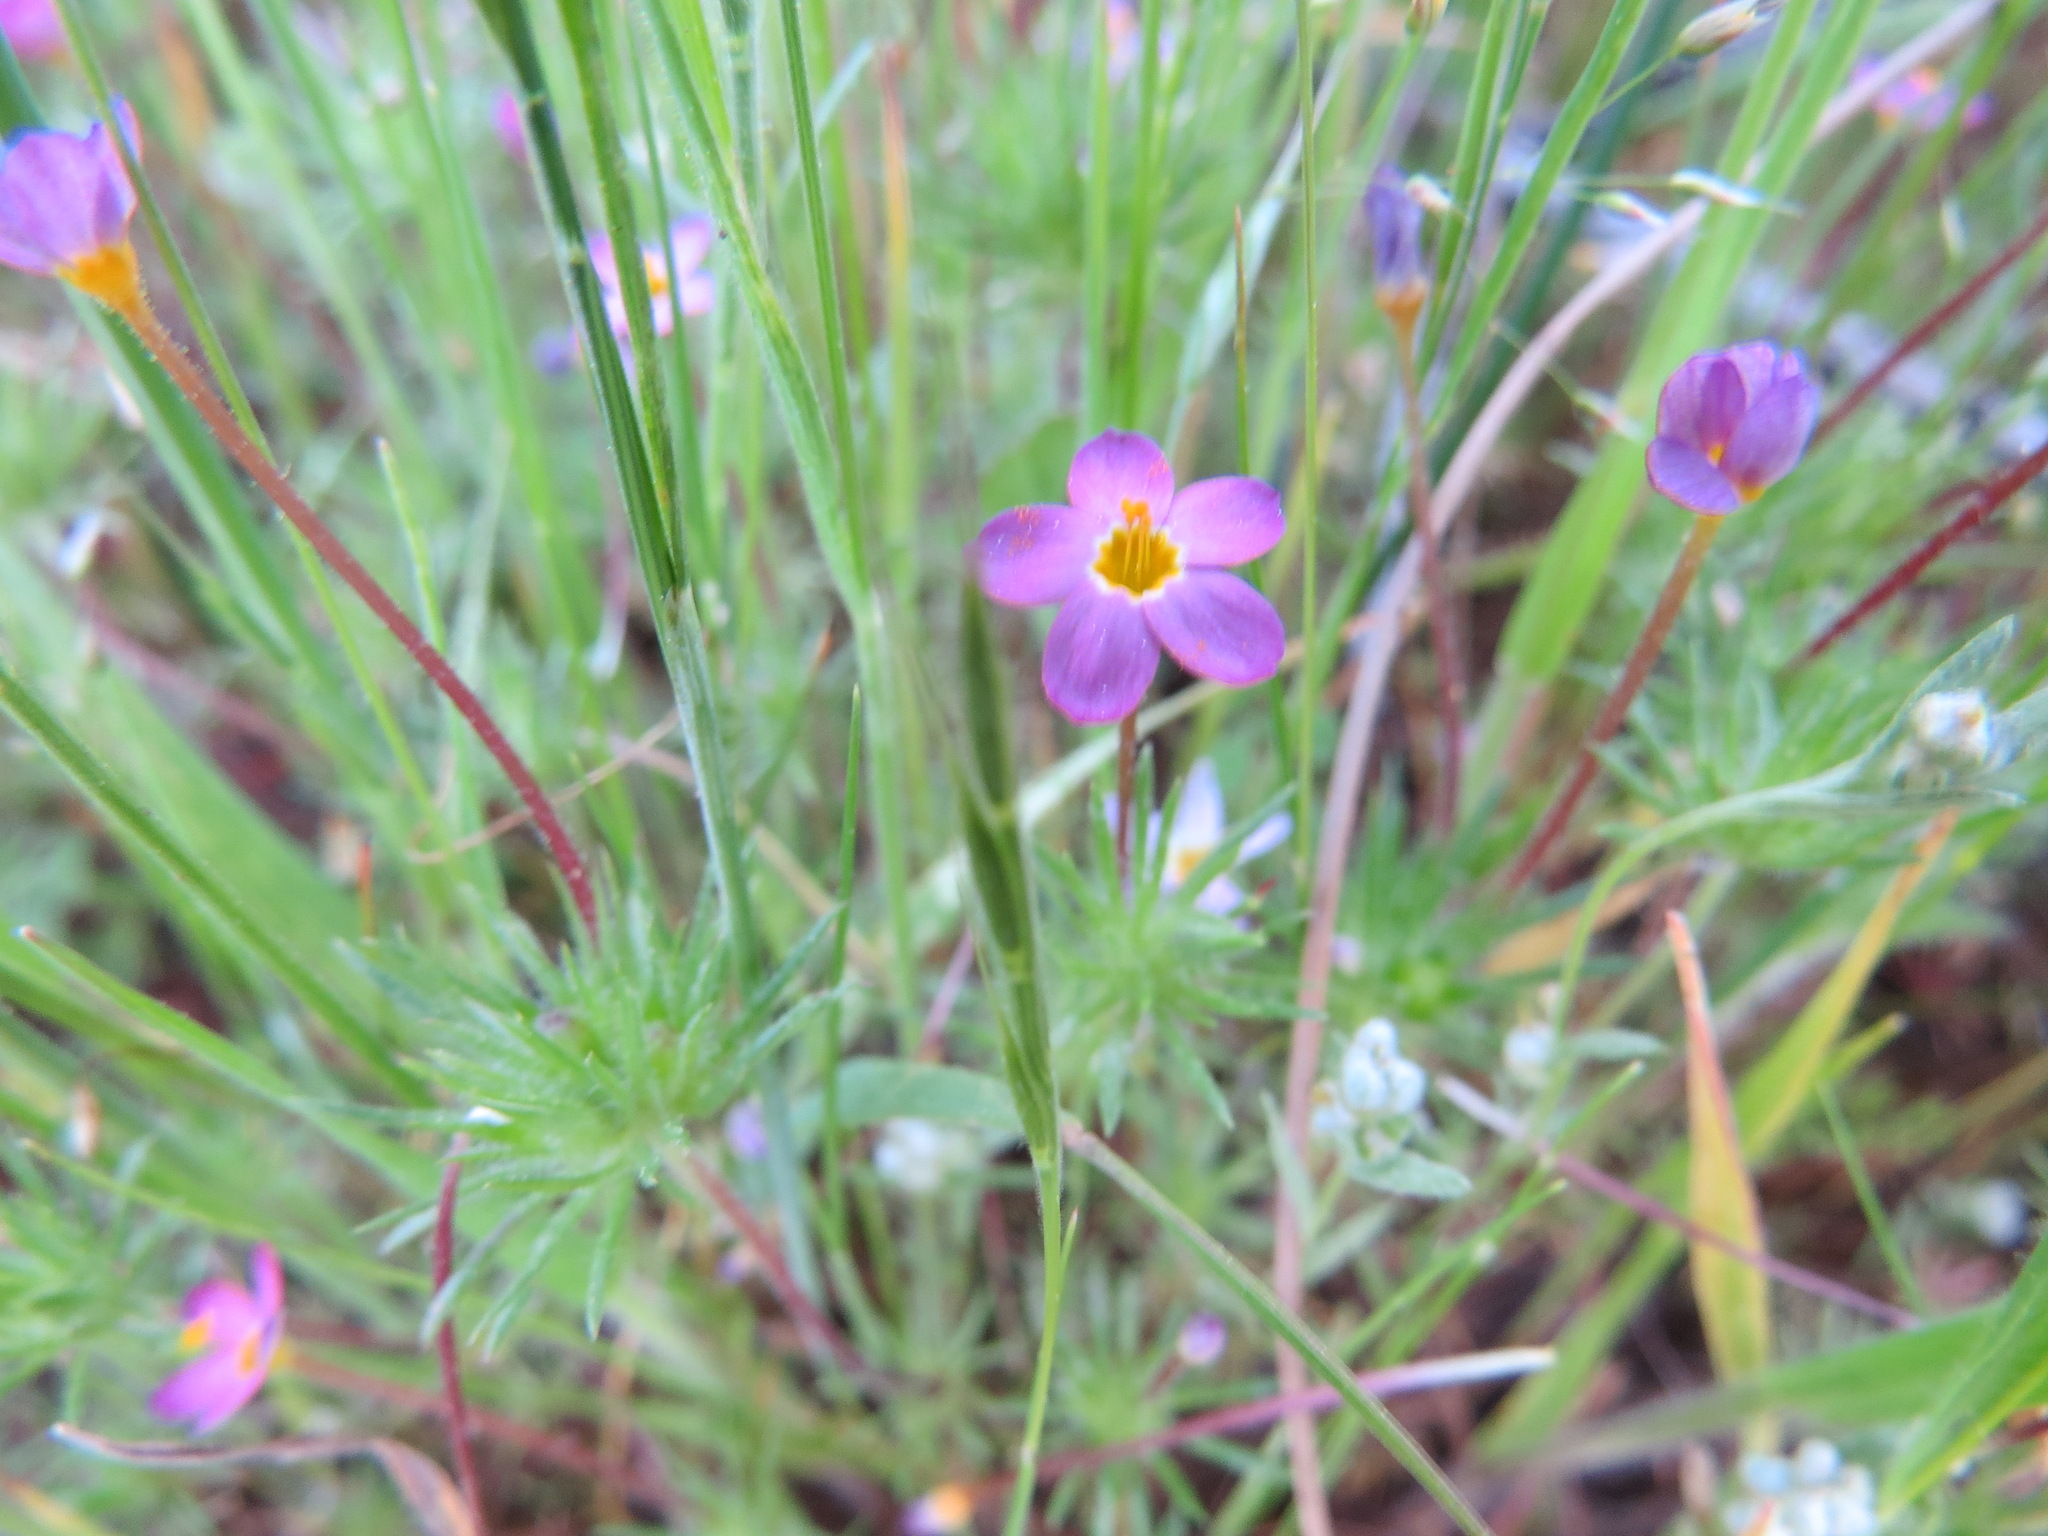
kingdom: Plantae
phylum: Tracheophyta
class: Magnoliopsida
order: Ericales
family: Polemoniaceae
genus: Leptosiphon
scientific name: Leptosiphon bicolor
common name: True babystars
